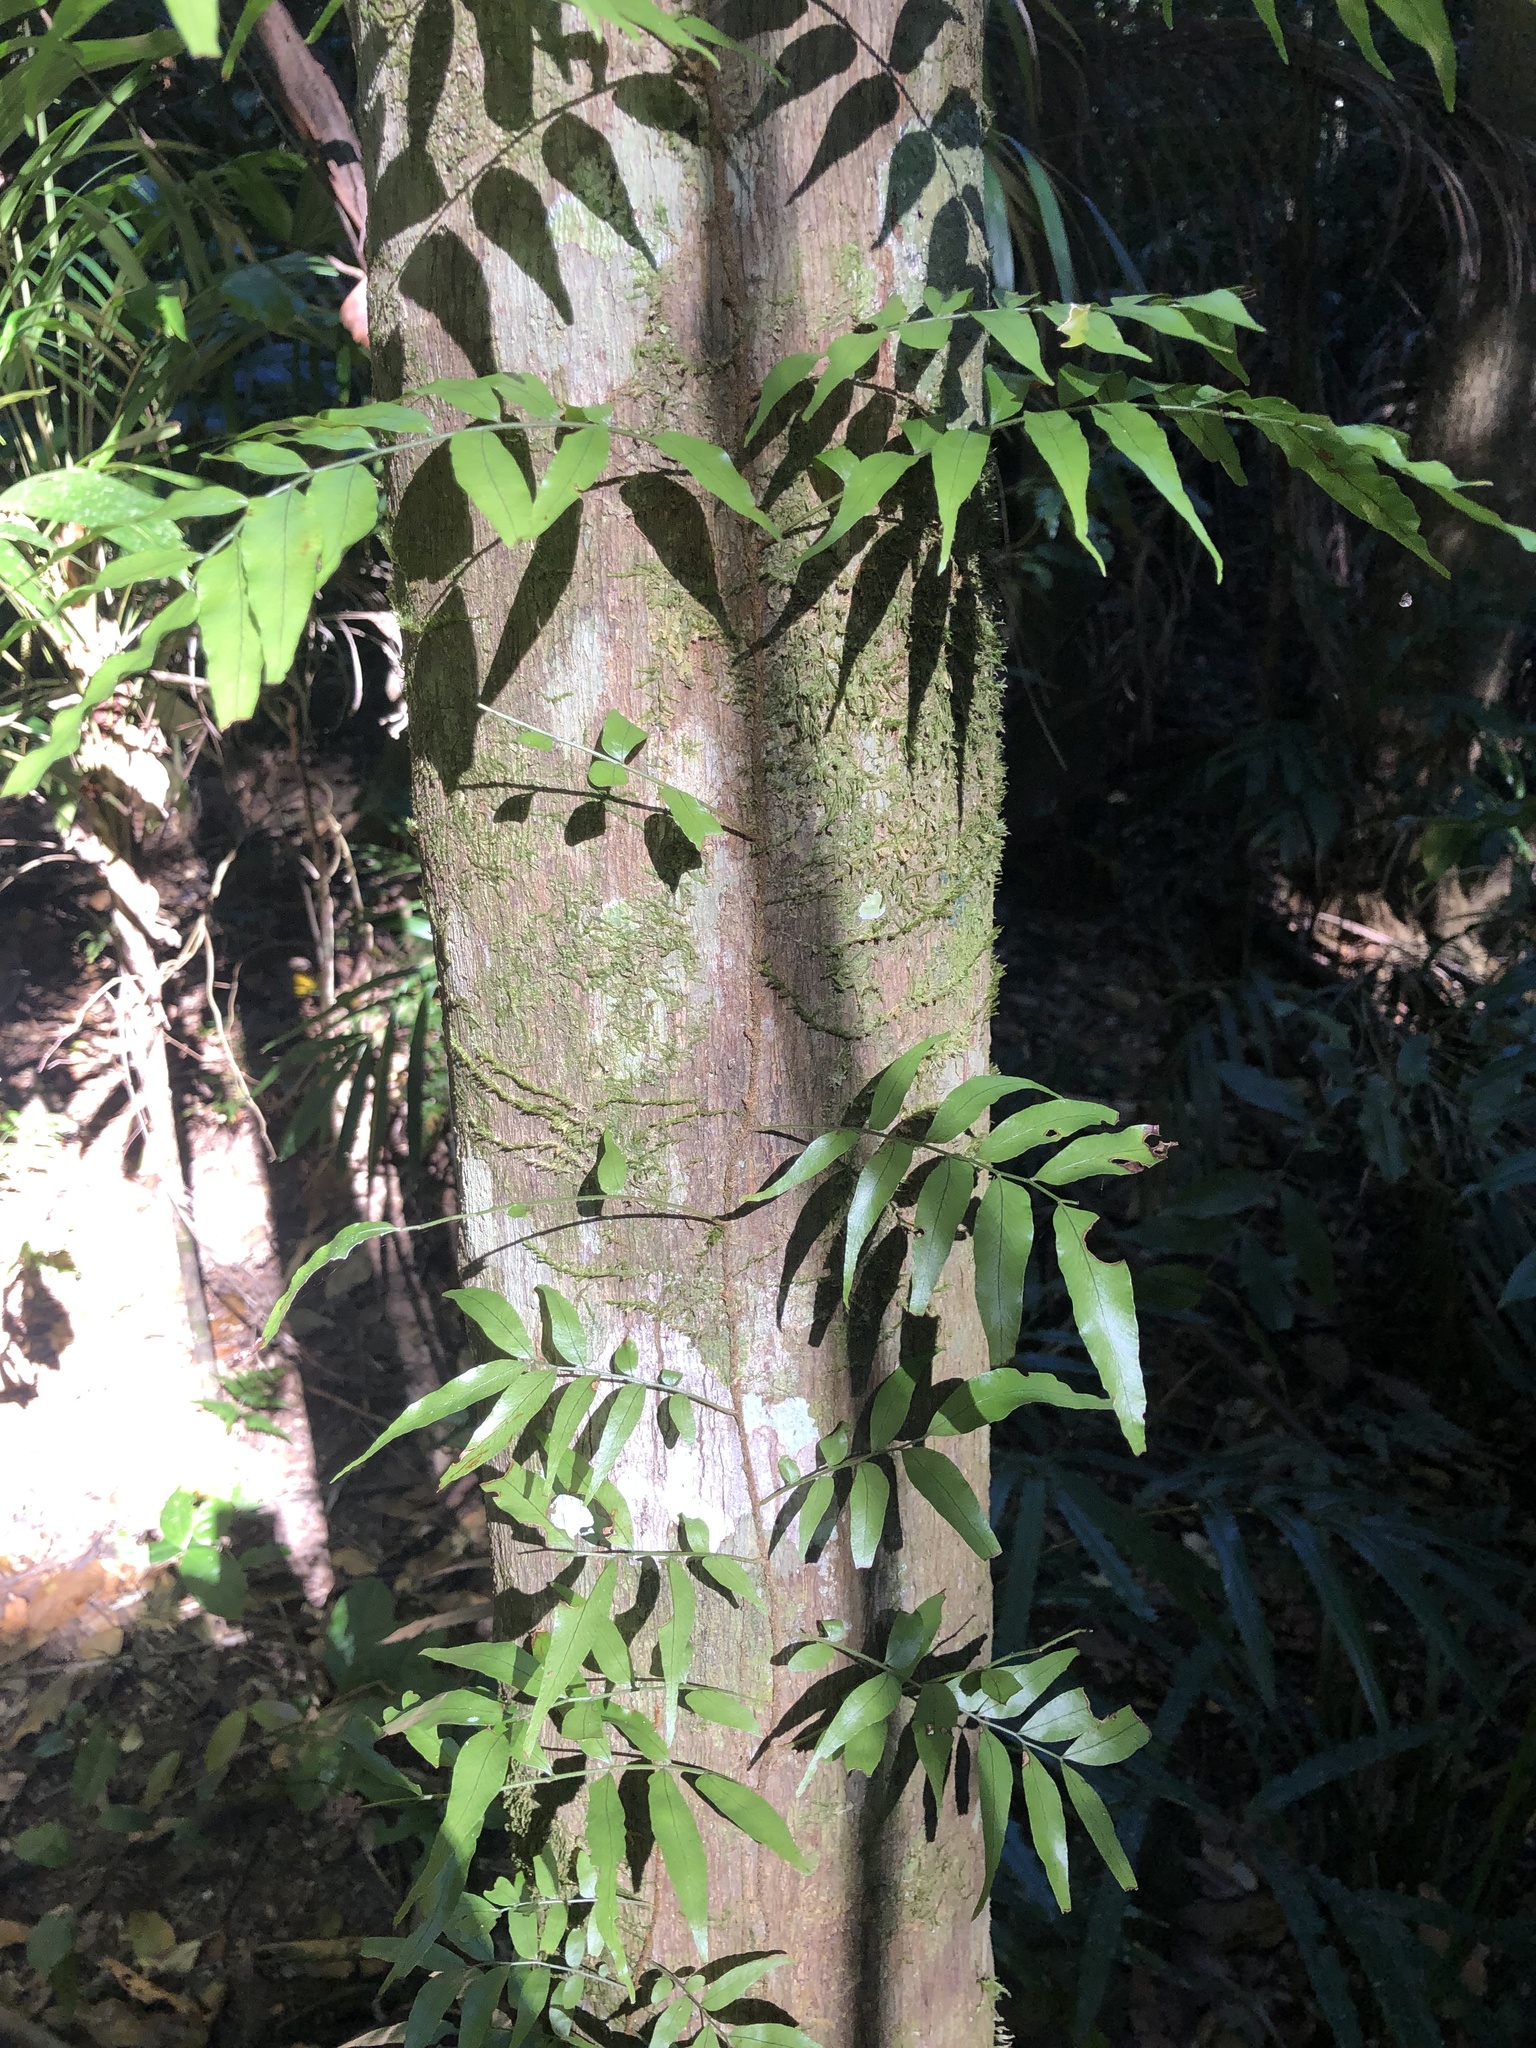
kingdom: Plantae
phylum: Tracheophyta
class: Polypodiopsida
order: Polypodiales
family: Tectariaceae
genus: Arthropteris
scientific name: Arthropteris tenella
